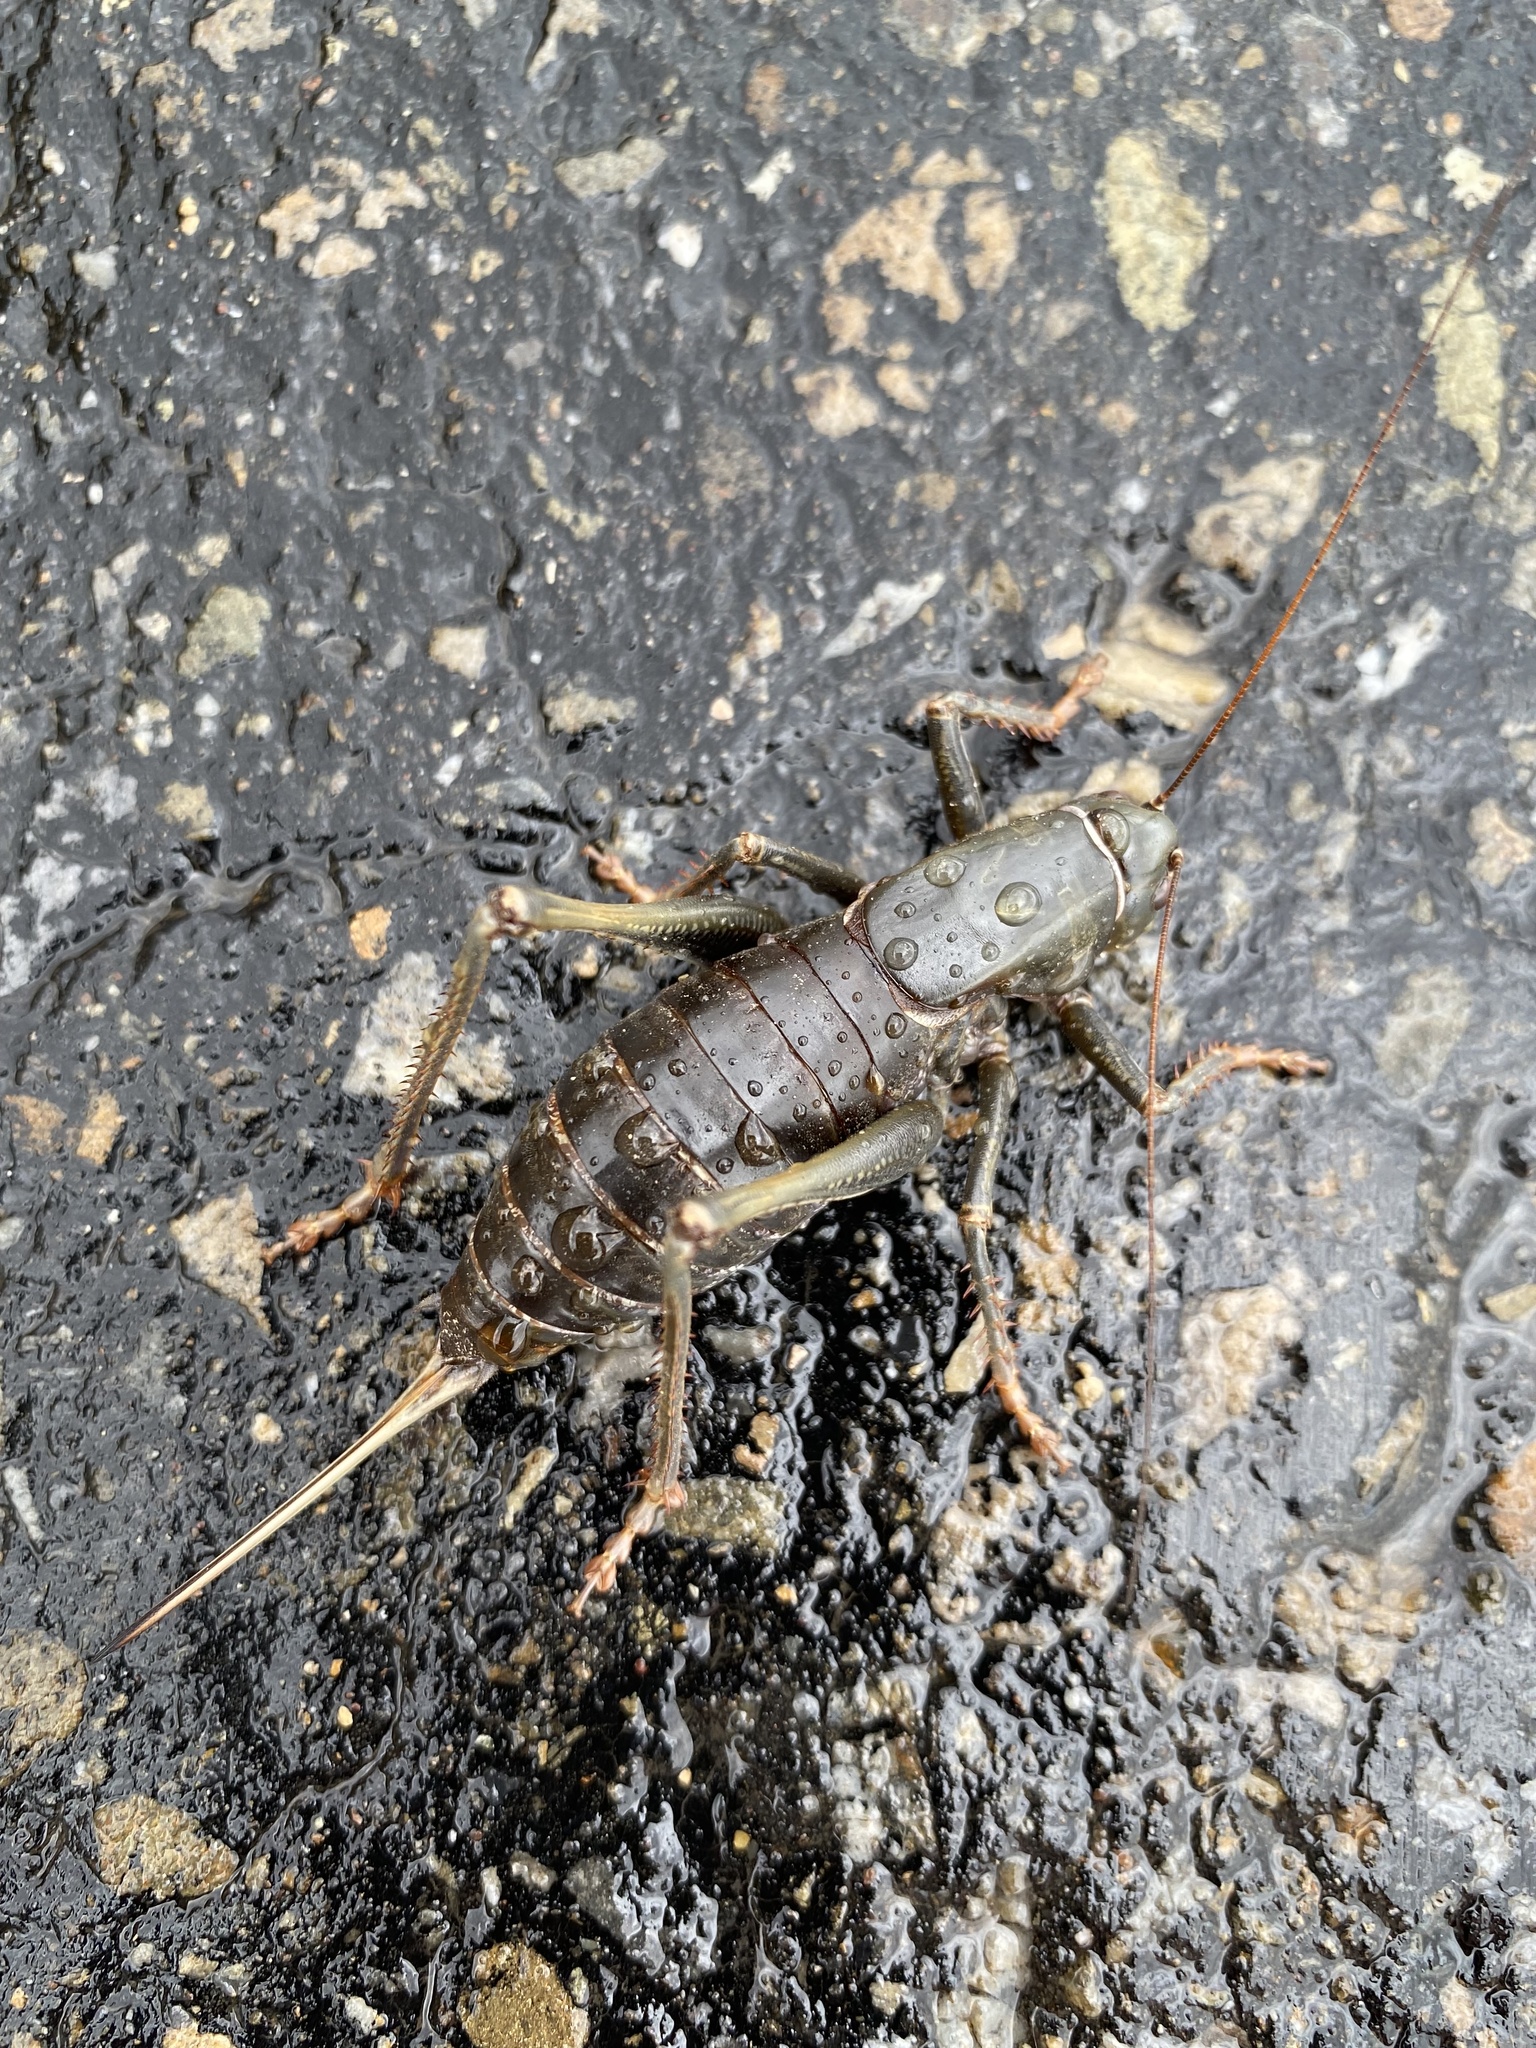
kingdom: Animalia
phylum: Arthropoda
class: Insecta
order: Orthoptera
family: Tettigoniidae
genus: Anabrus
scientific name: Anabrus simplex
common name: Mormon cricket
